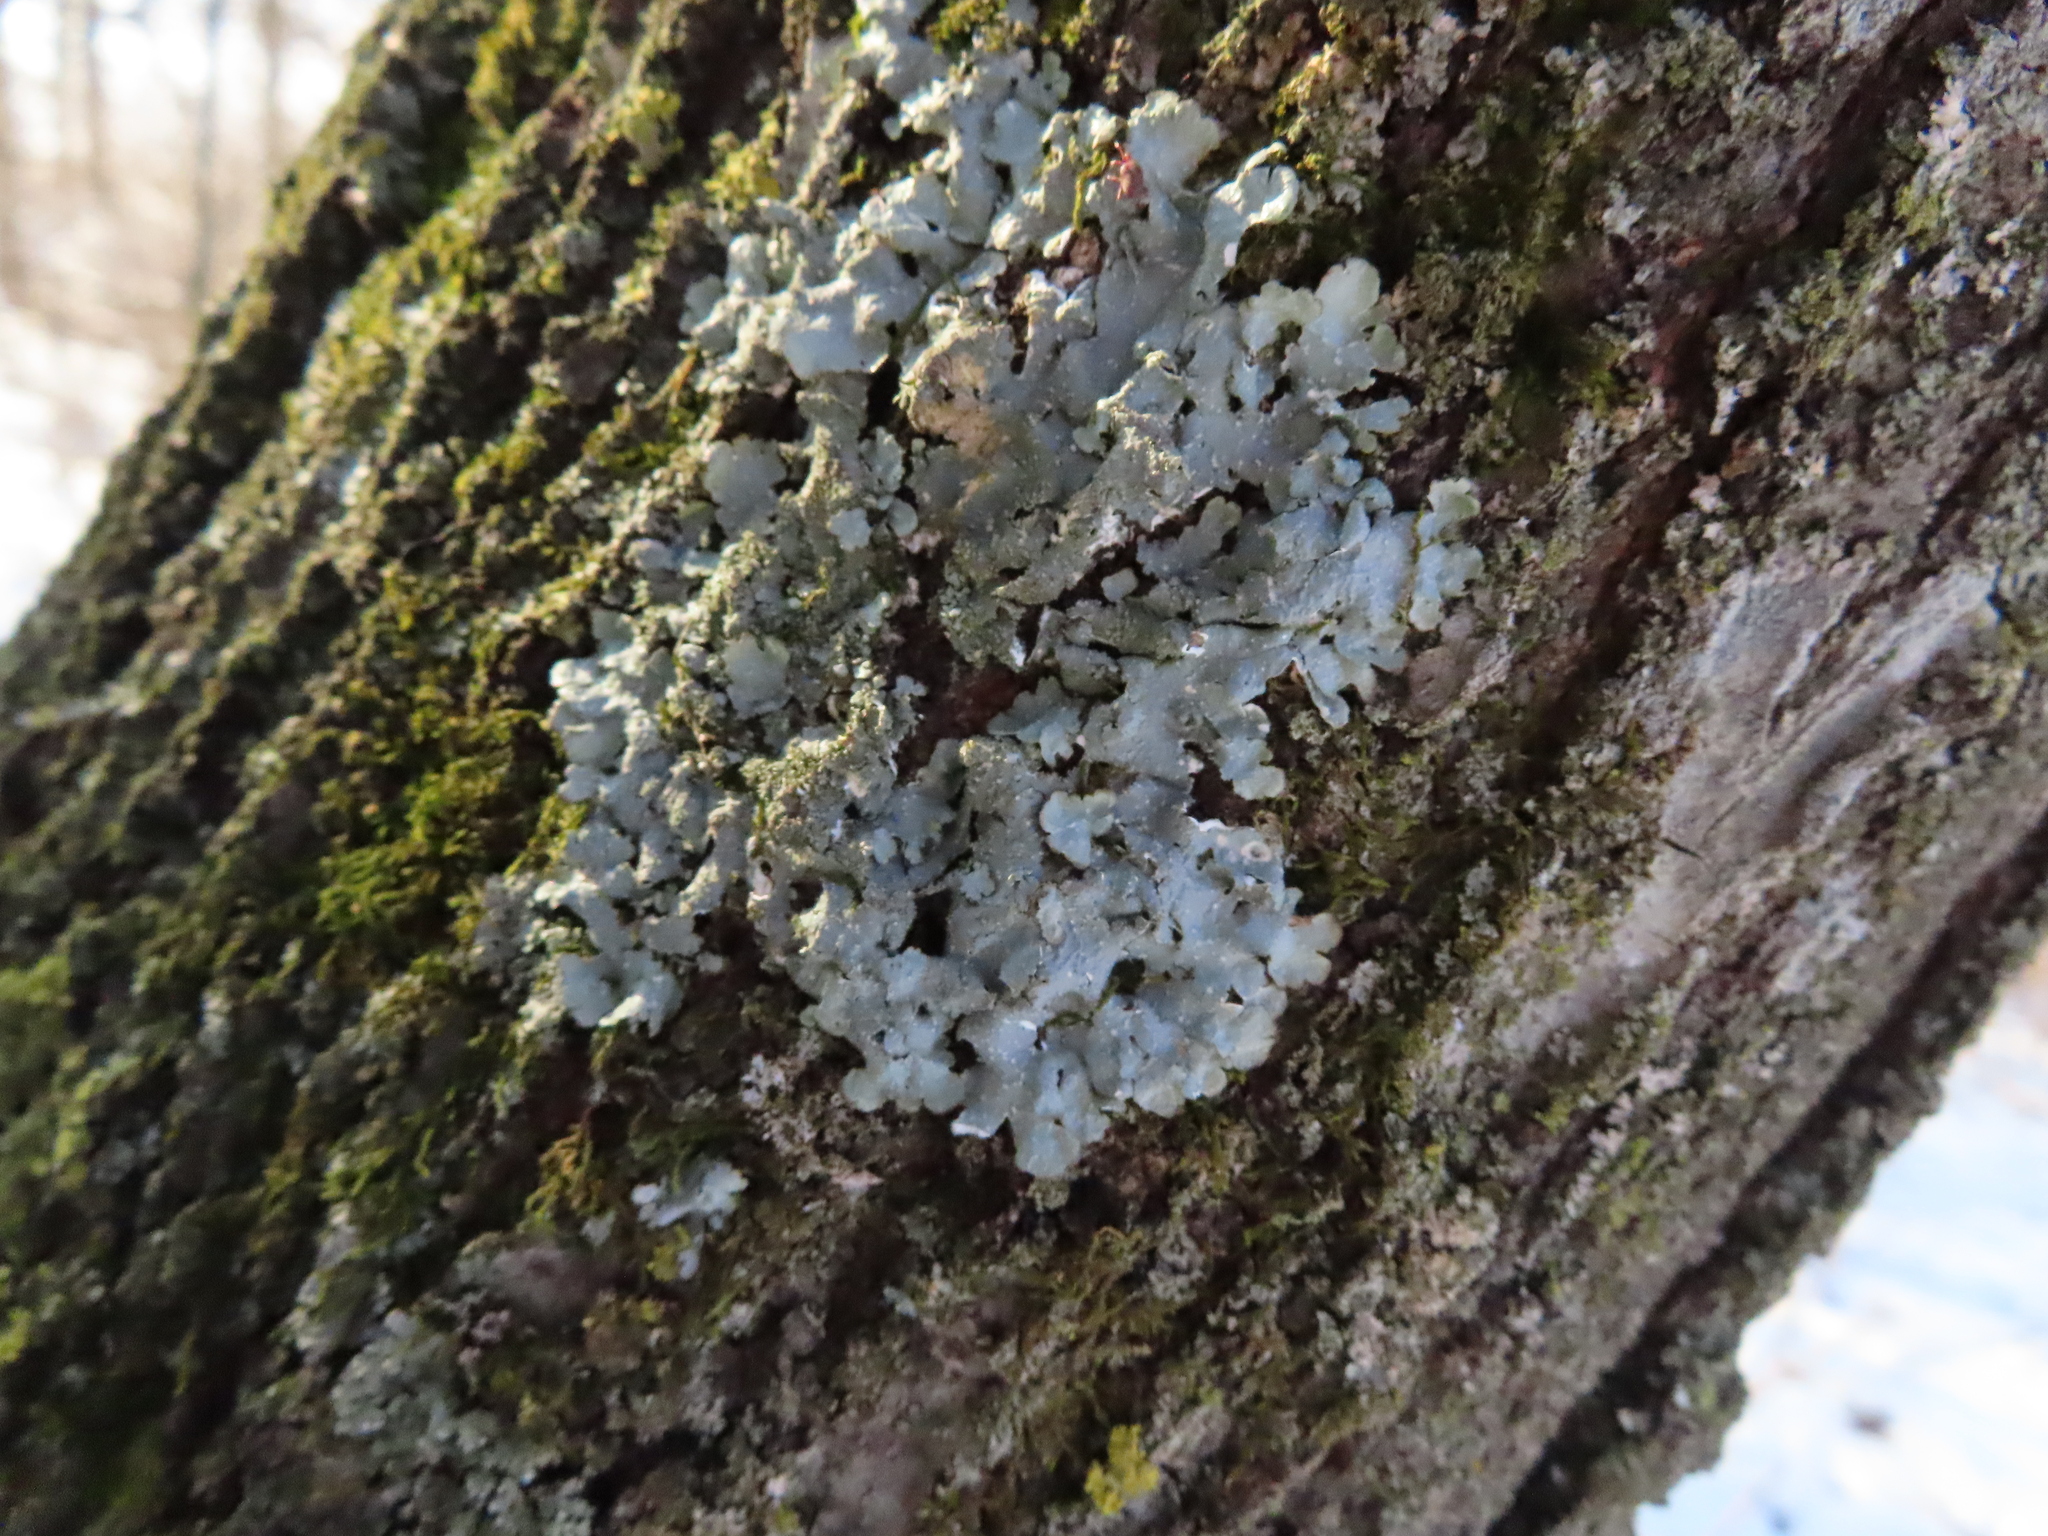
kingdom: Fungi
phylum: Ascomycota
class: Lecanoromycetes
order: Lecanorales
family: Parmeliaceae
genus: Punctelia
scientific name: Punctelia rudecta
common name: Rough speckled shield lichen
